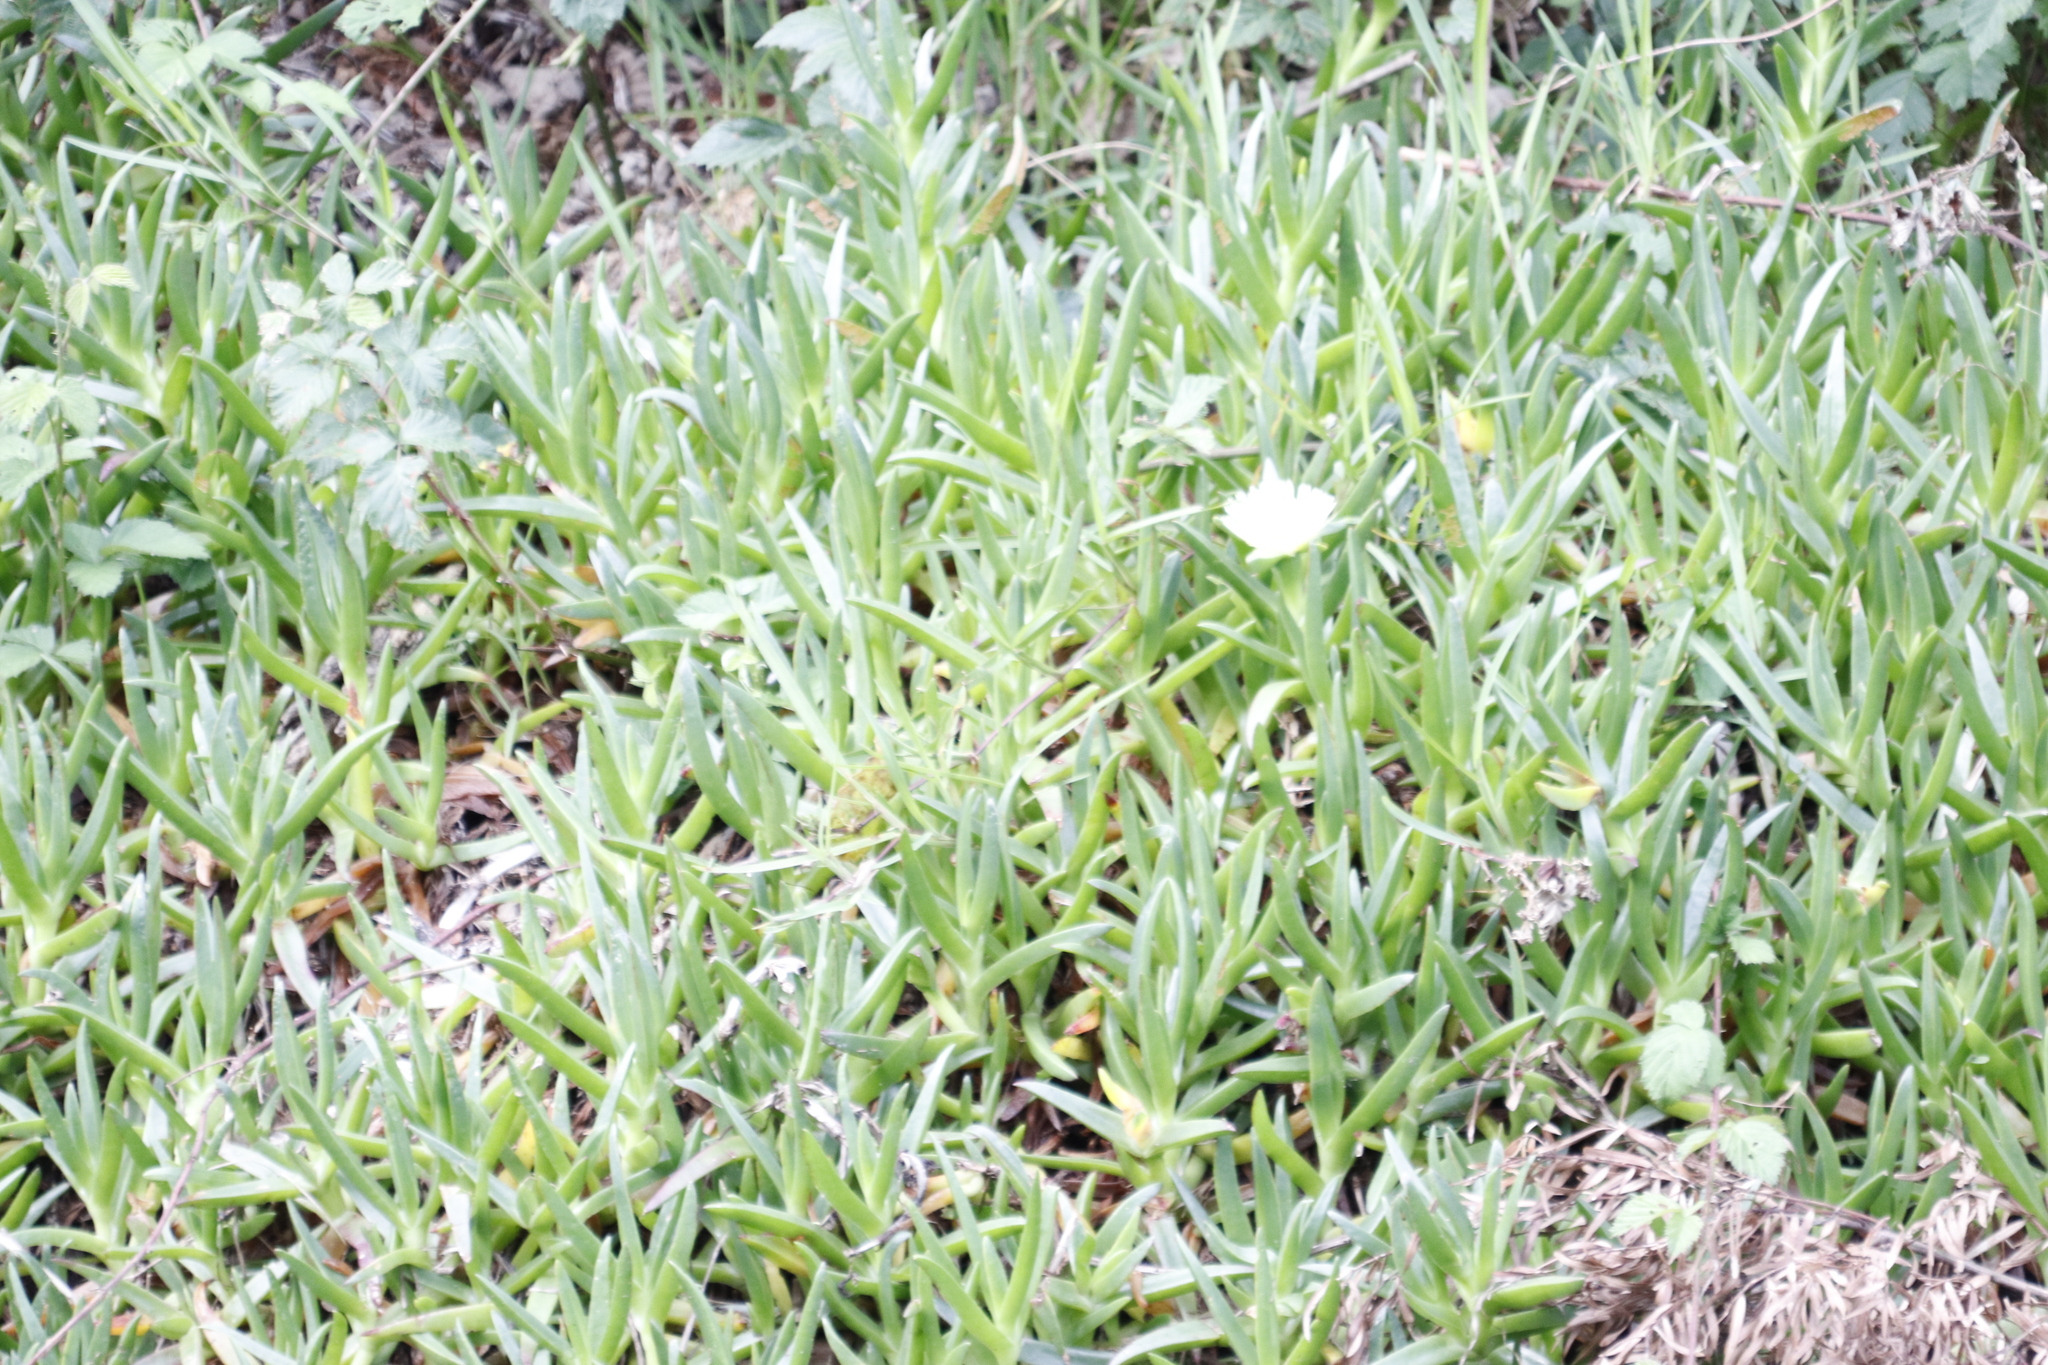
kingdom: Plantae
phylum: Tracheophyta
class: Magnoliopsida
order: Caryophyllales
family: Aizoaceae
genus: Carpobrotus
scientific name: Carpobrotus edulis
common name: Hottentot-fig
